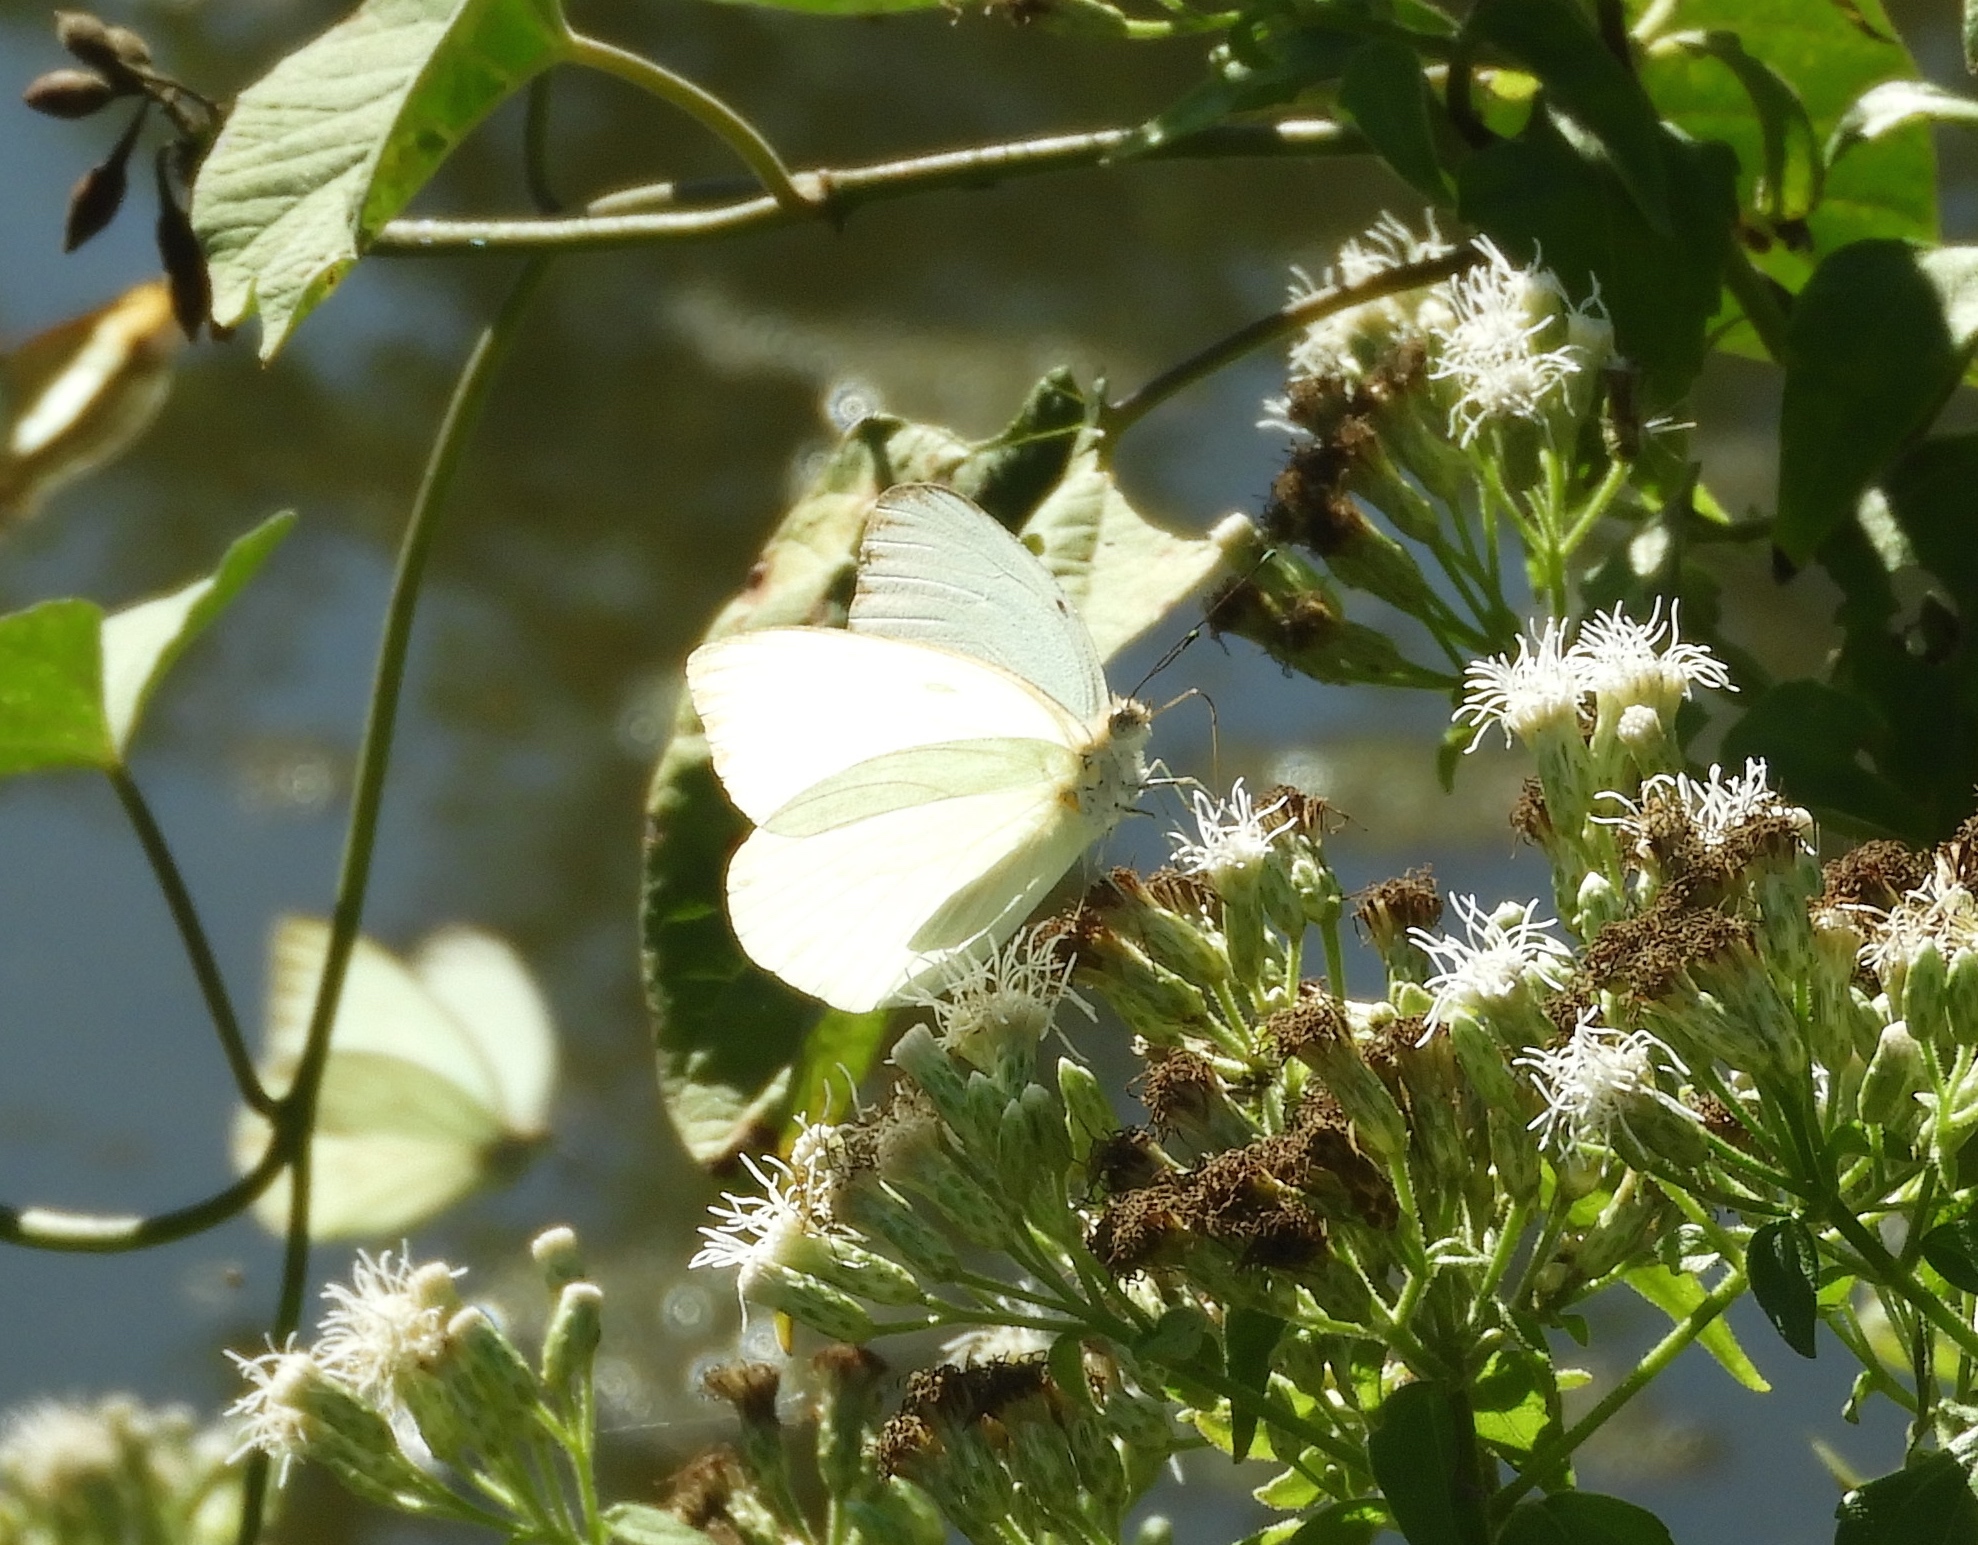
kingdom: Animalia
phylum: Arthropoda
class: Insecta
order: Lepidoptera
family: Pieridae
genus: Ascia
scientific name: Ascia monuste
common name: Great southern white
